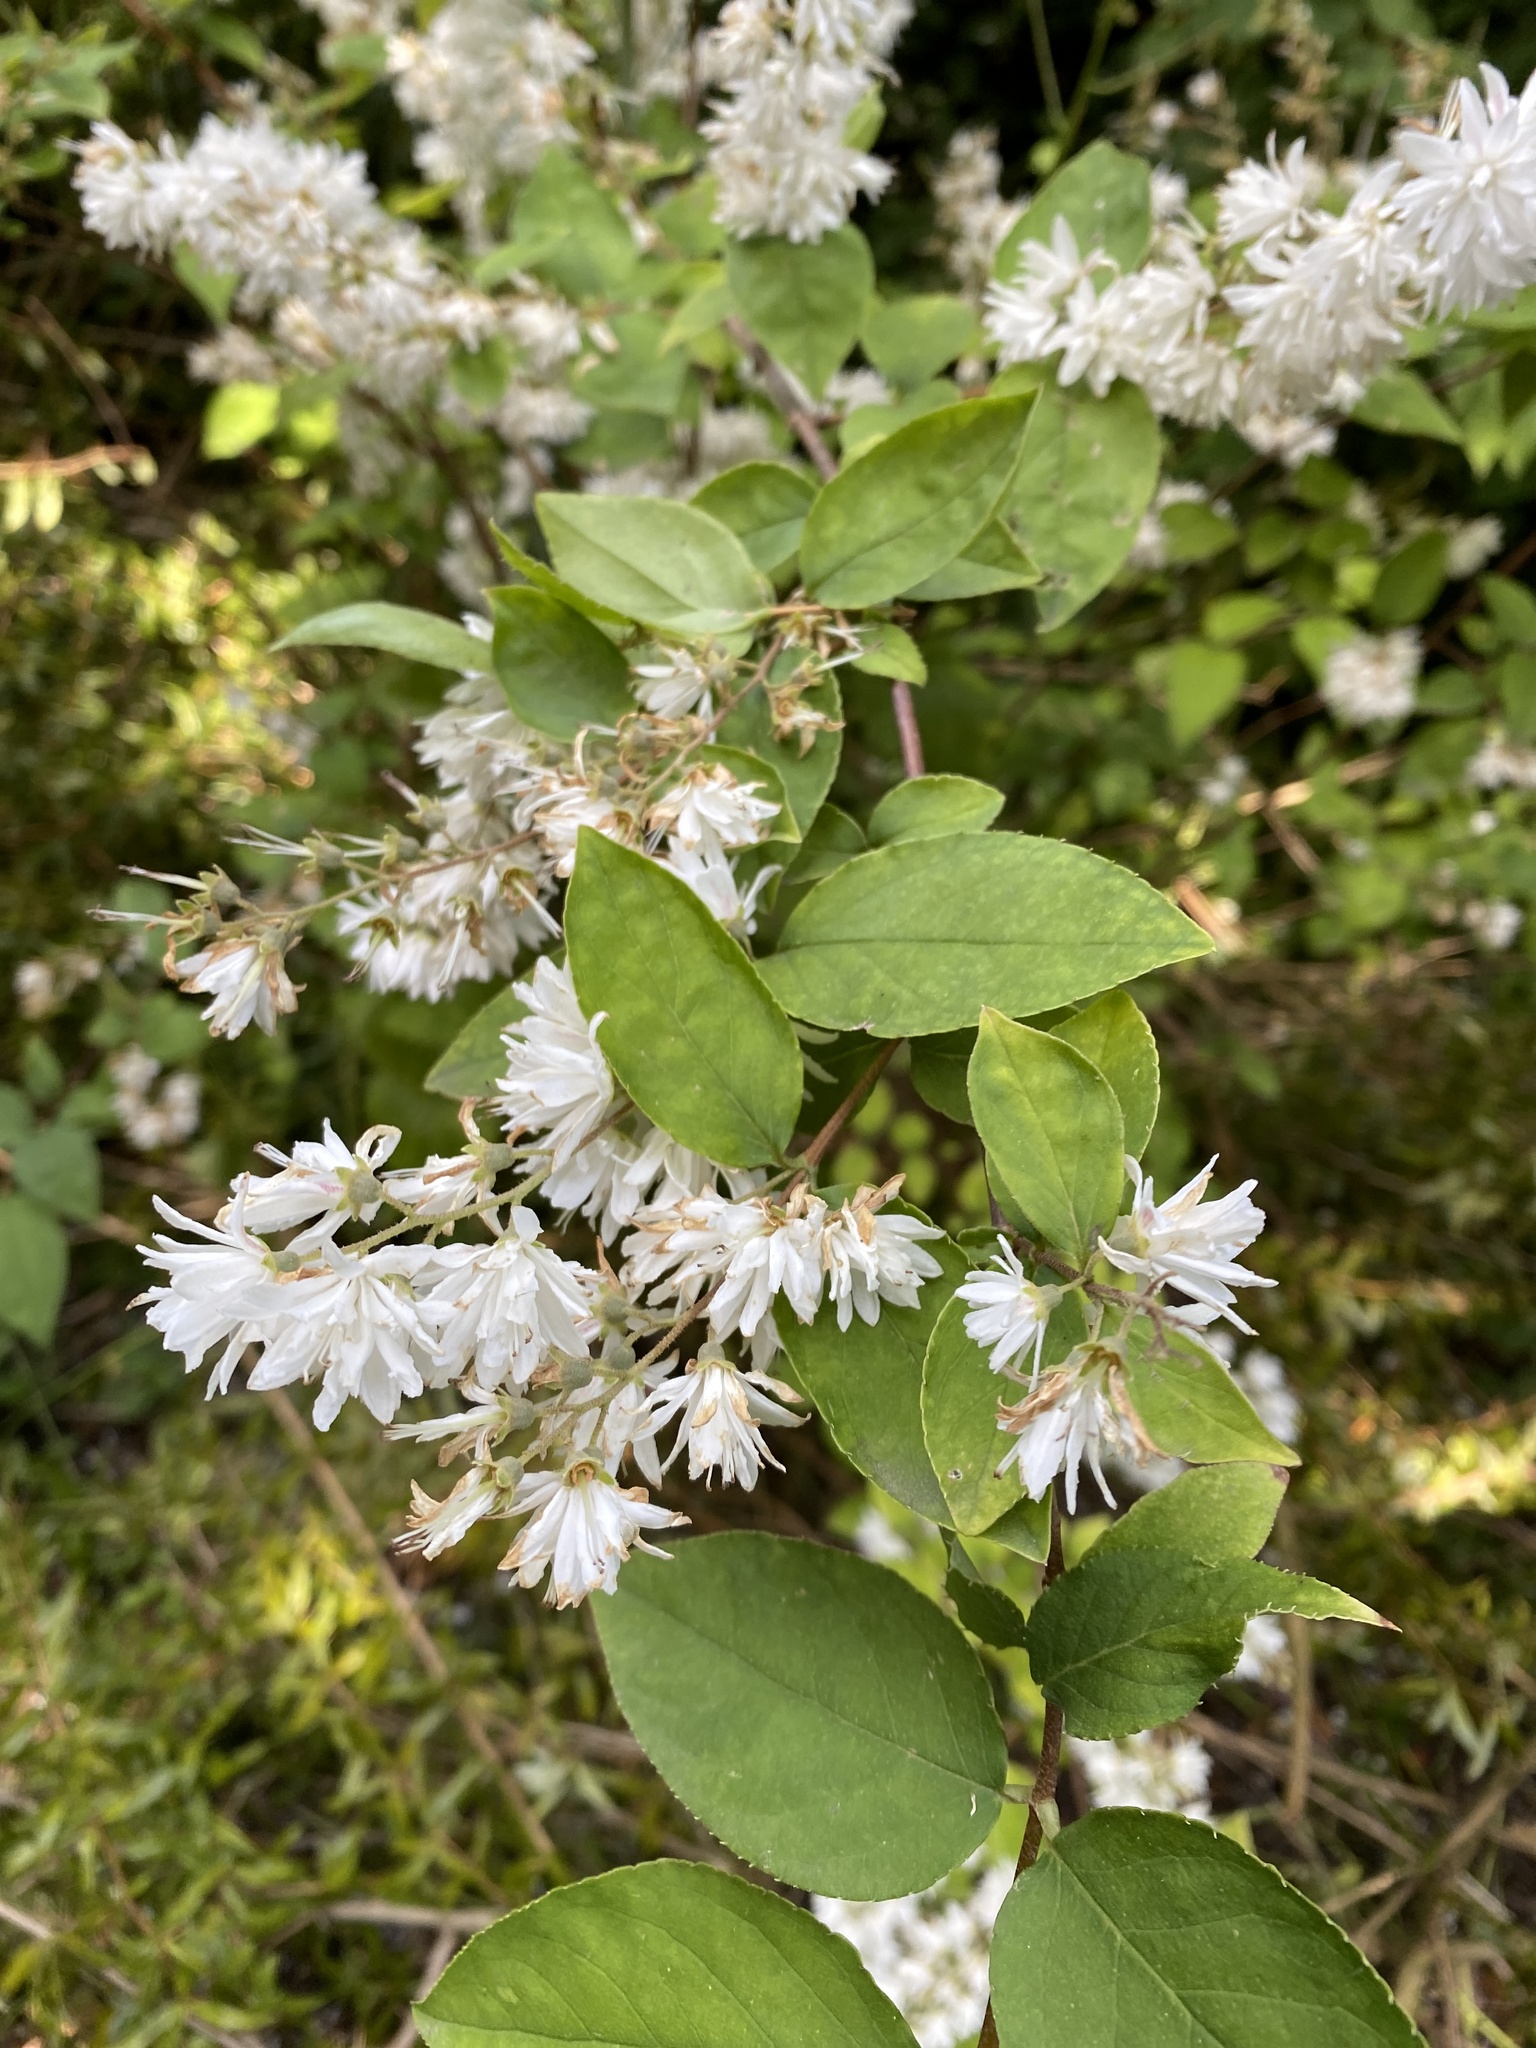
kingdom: Plantae
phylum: Tracheophyta
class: Magnoliopsida
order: Cornales
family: Hydrangeaceae
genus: Deutzia
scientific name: Deutzia scabra
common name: Deutzia
